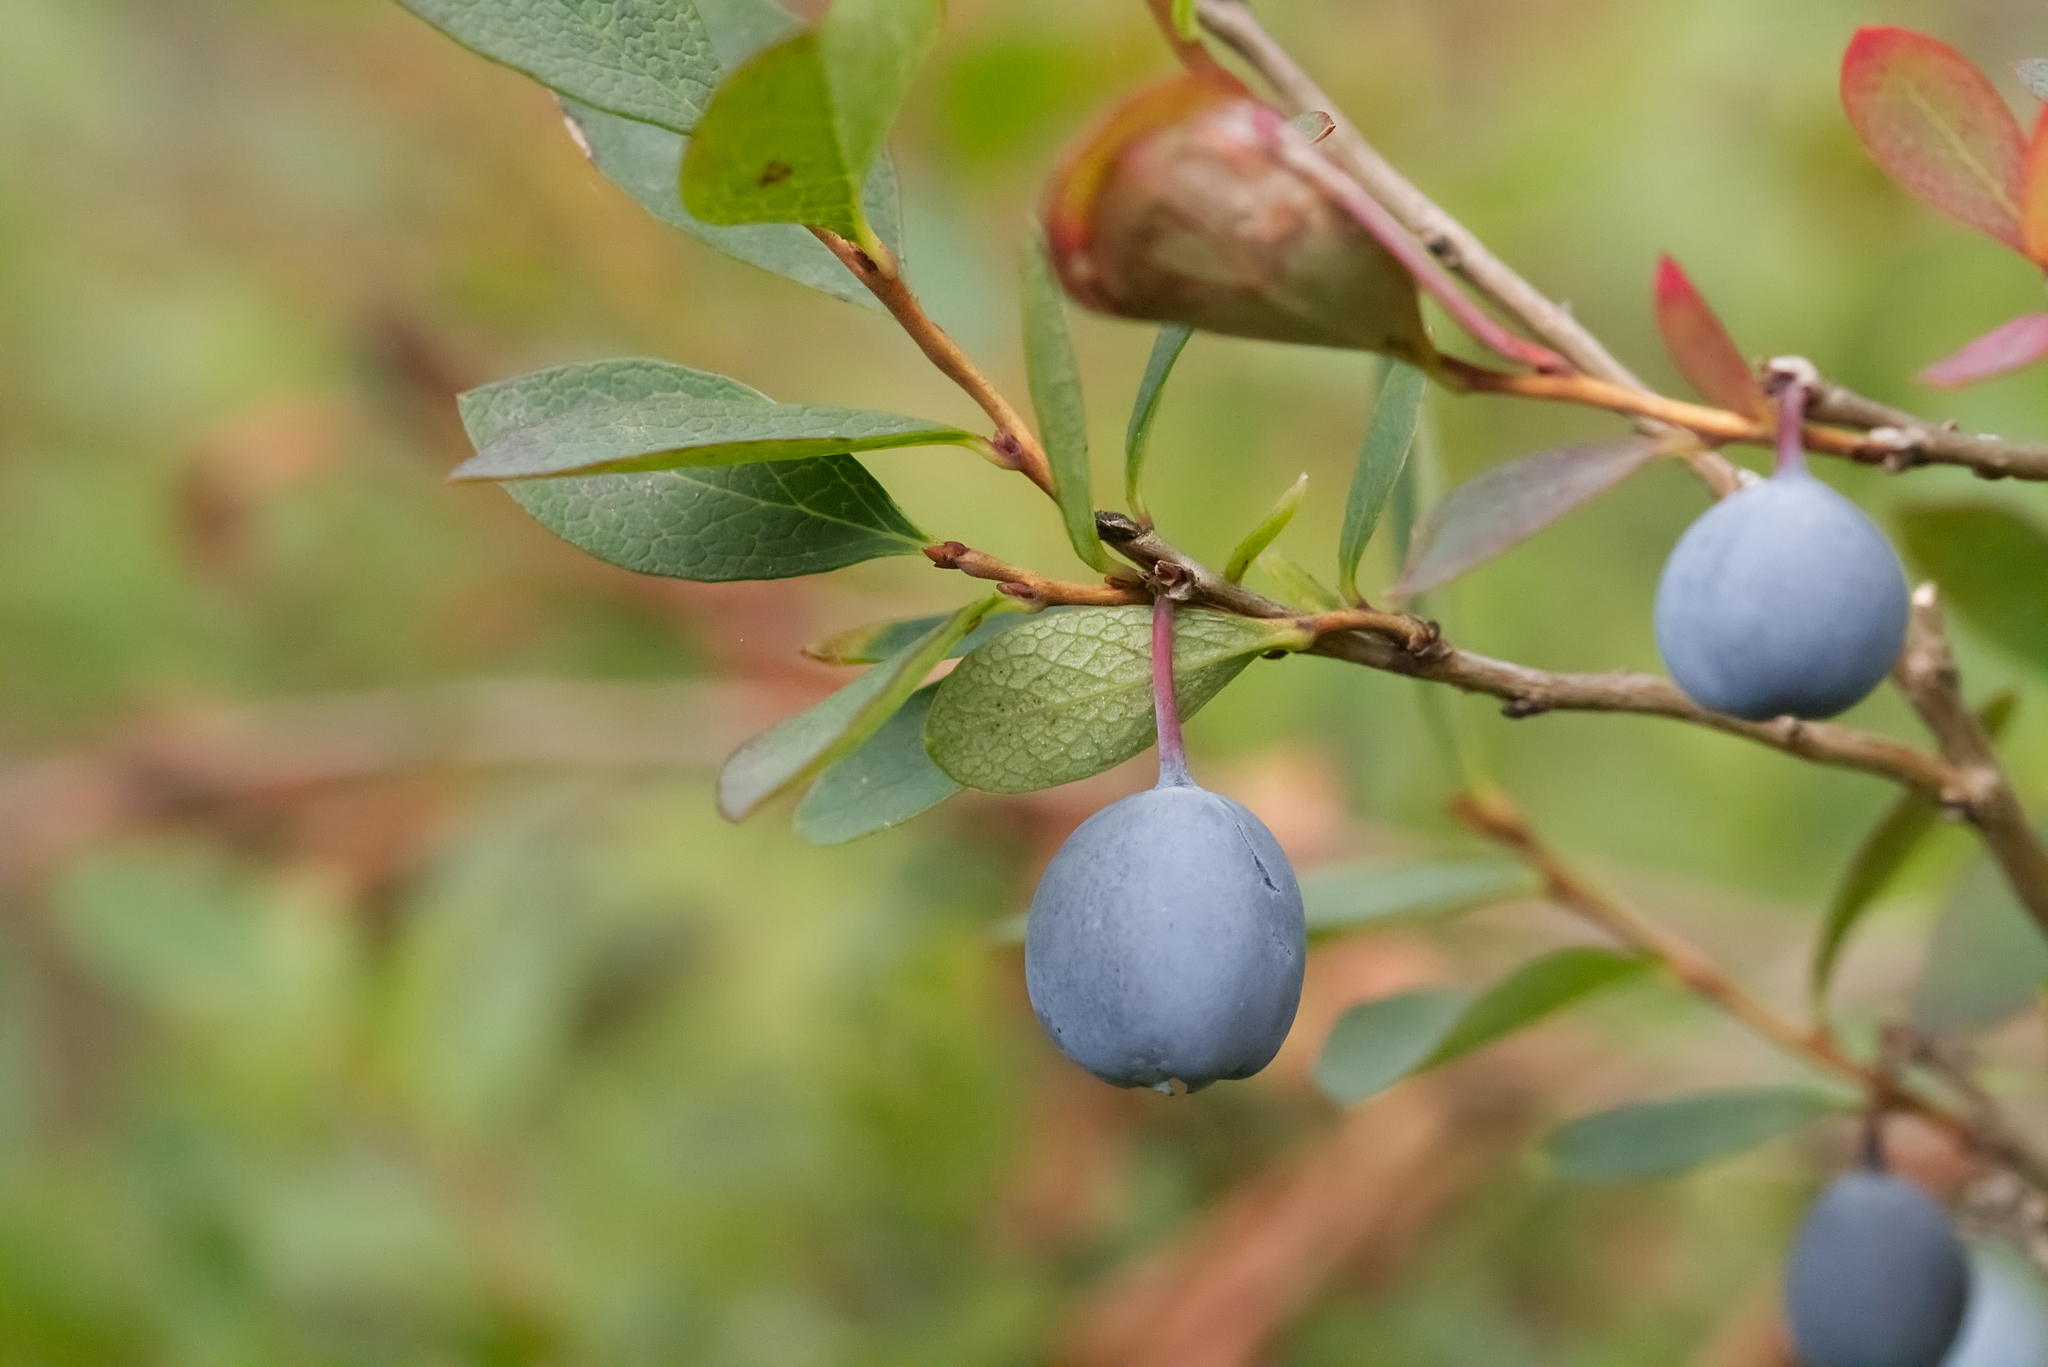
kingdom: Plantae
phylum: Tracheophyta
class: Magnoliopsida
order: Ericales
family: Ericaceae
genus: Vaccinium
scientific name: Vaccinium uliginosum
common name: Bog bilberry
